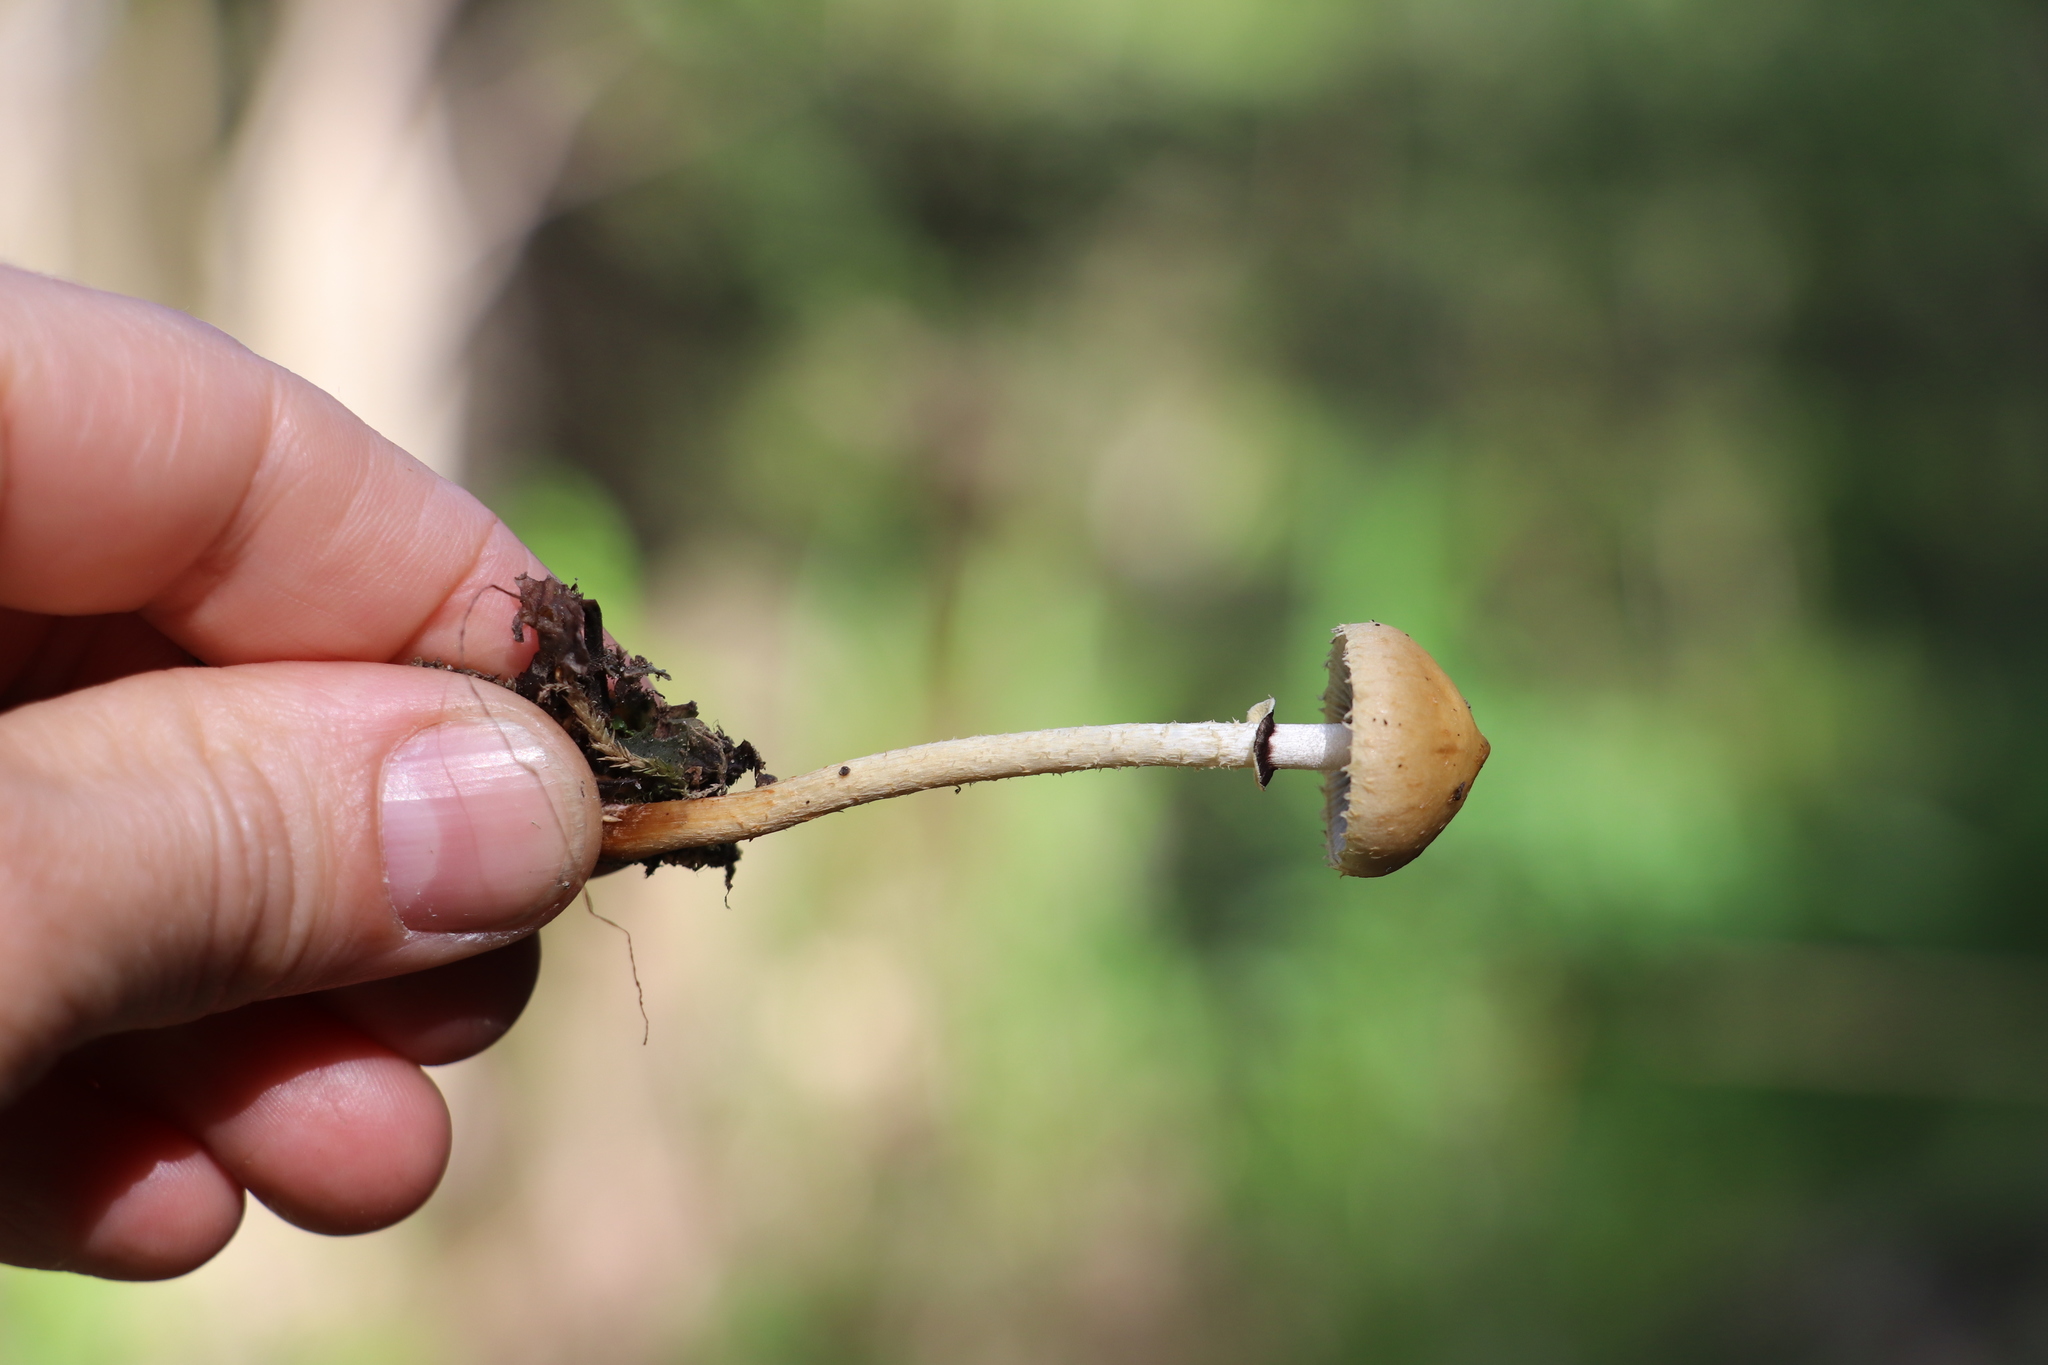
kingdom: Fungi
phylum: Basidiomycota
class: Agaricomycetes
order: Agaricales
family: Strophariaceae
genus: Leratiomyces
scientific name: Leratiomyces magnivelaris
